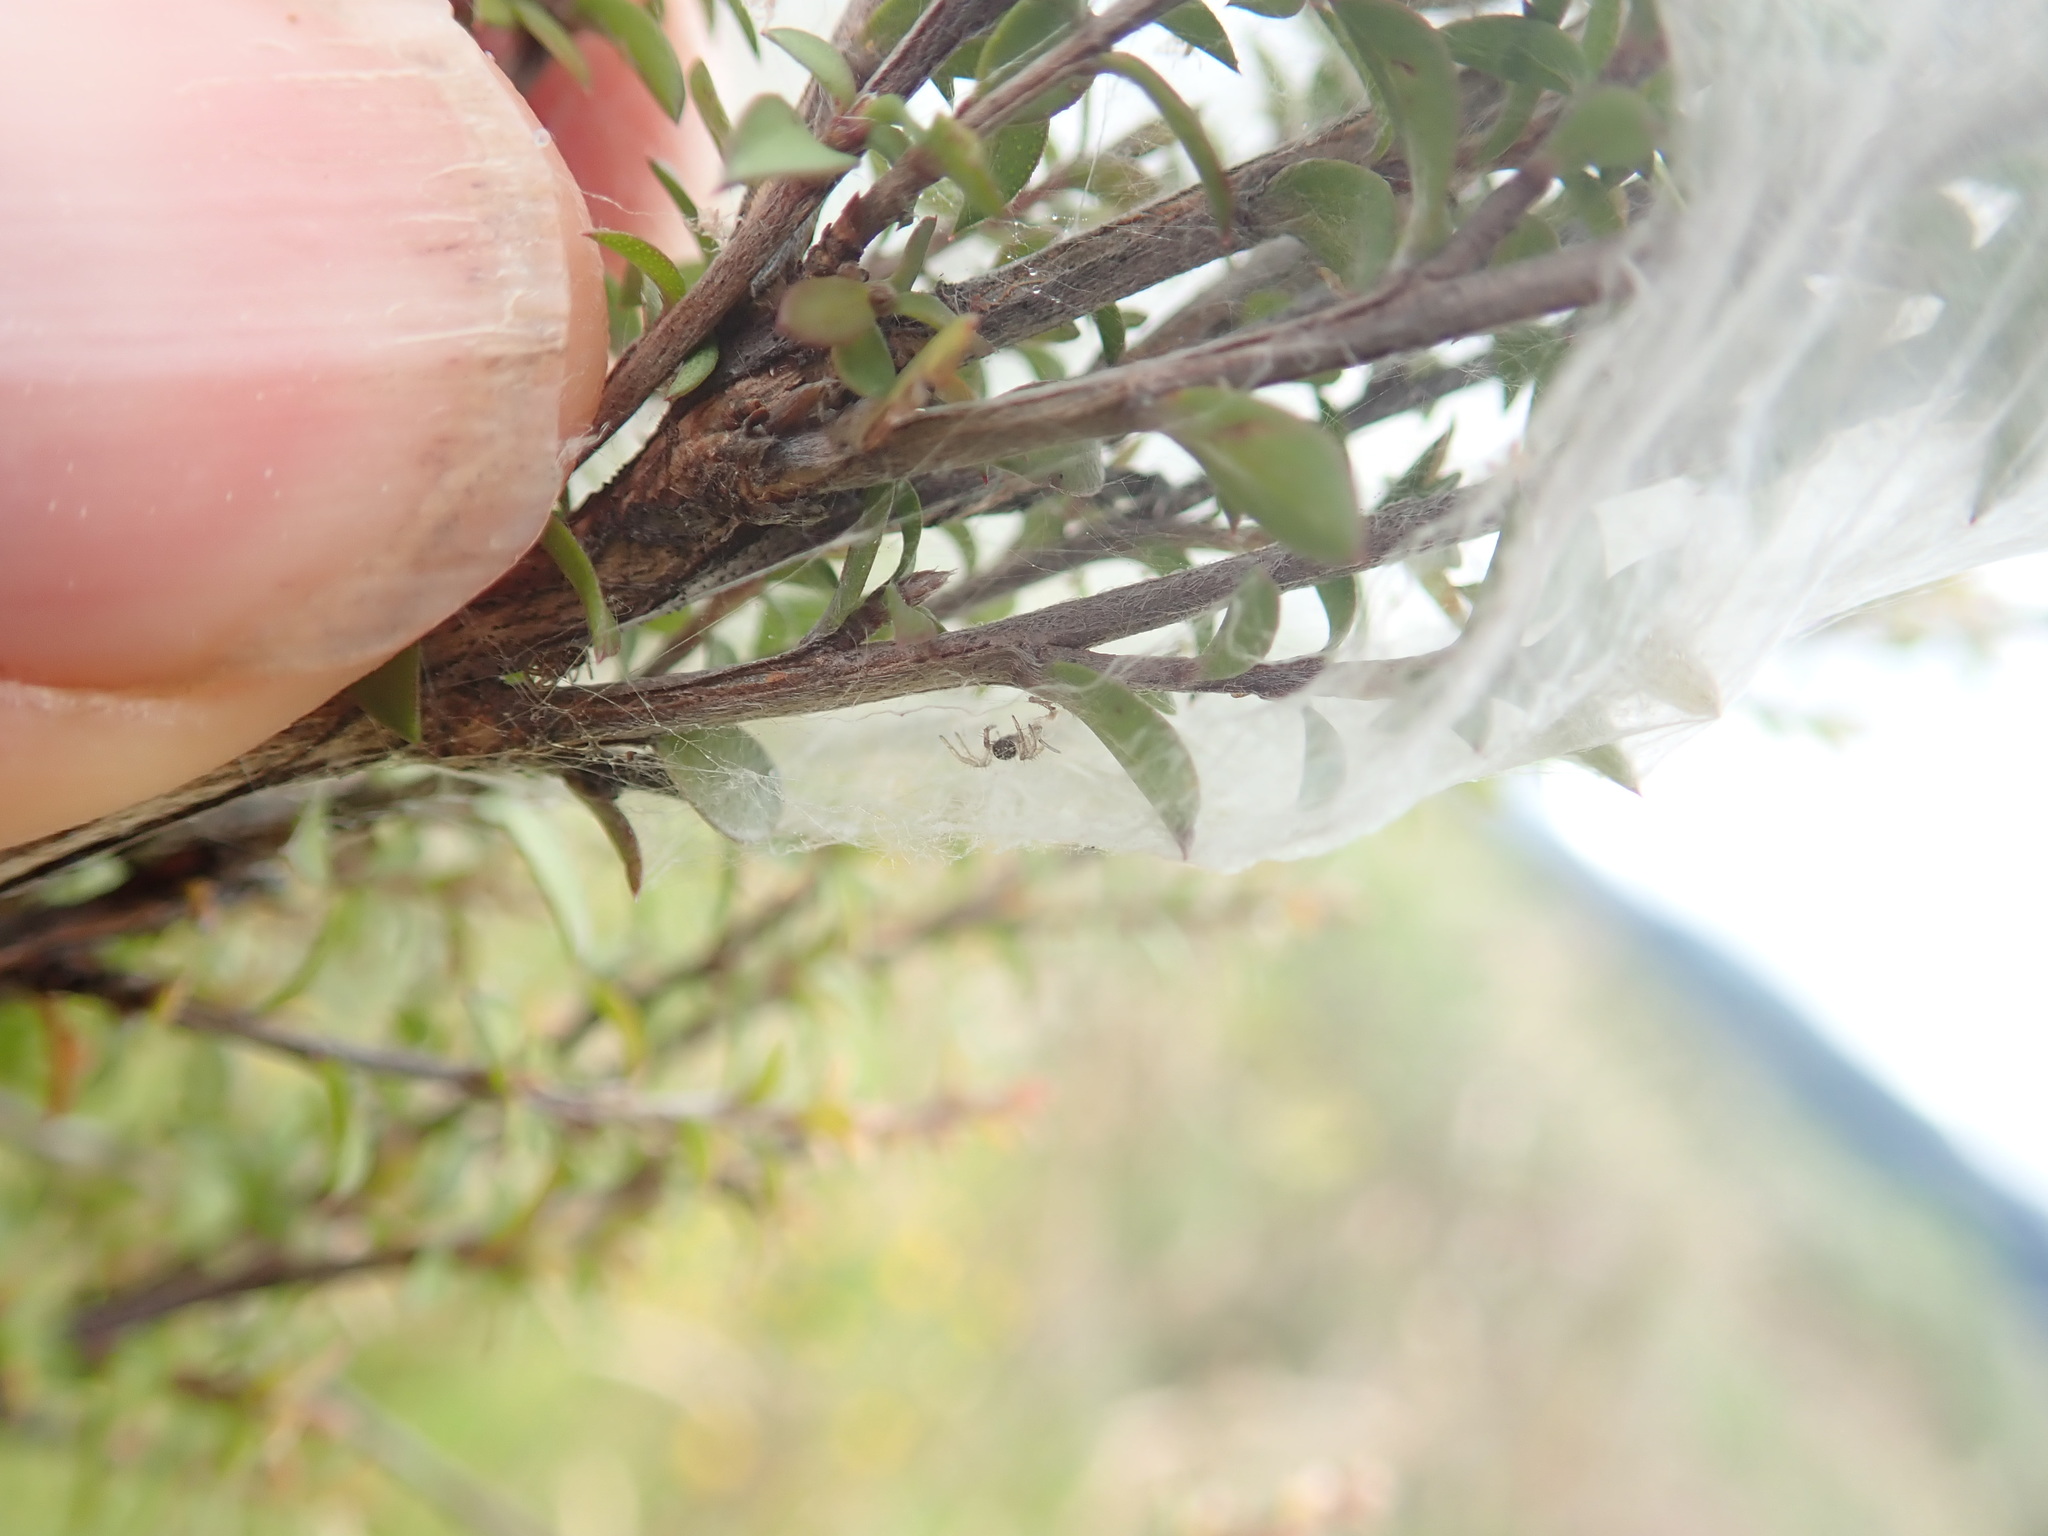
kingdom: Animalia
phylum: Arthropoda
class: Arachnida
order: Araneae
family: Pisauridae
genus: Dolomedes
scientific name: Dolomedes minor
